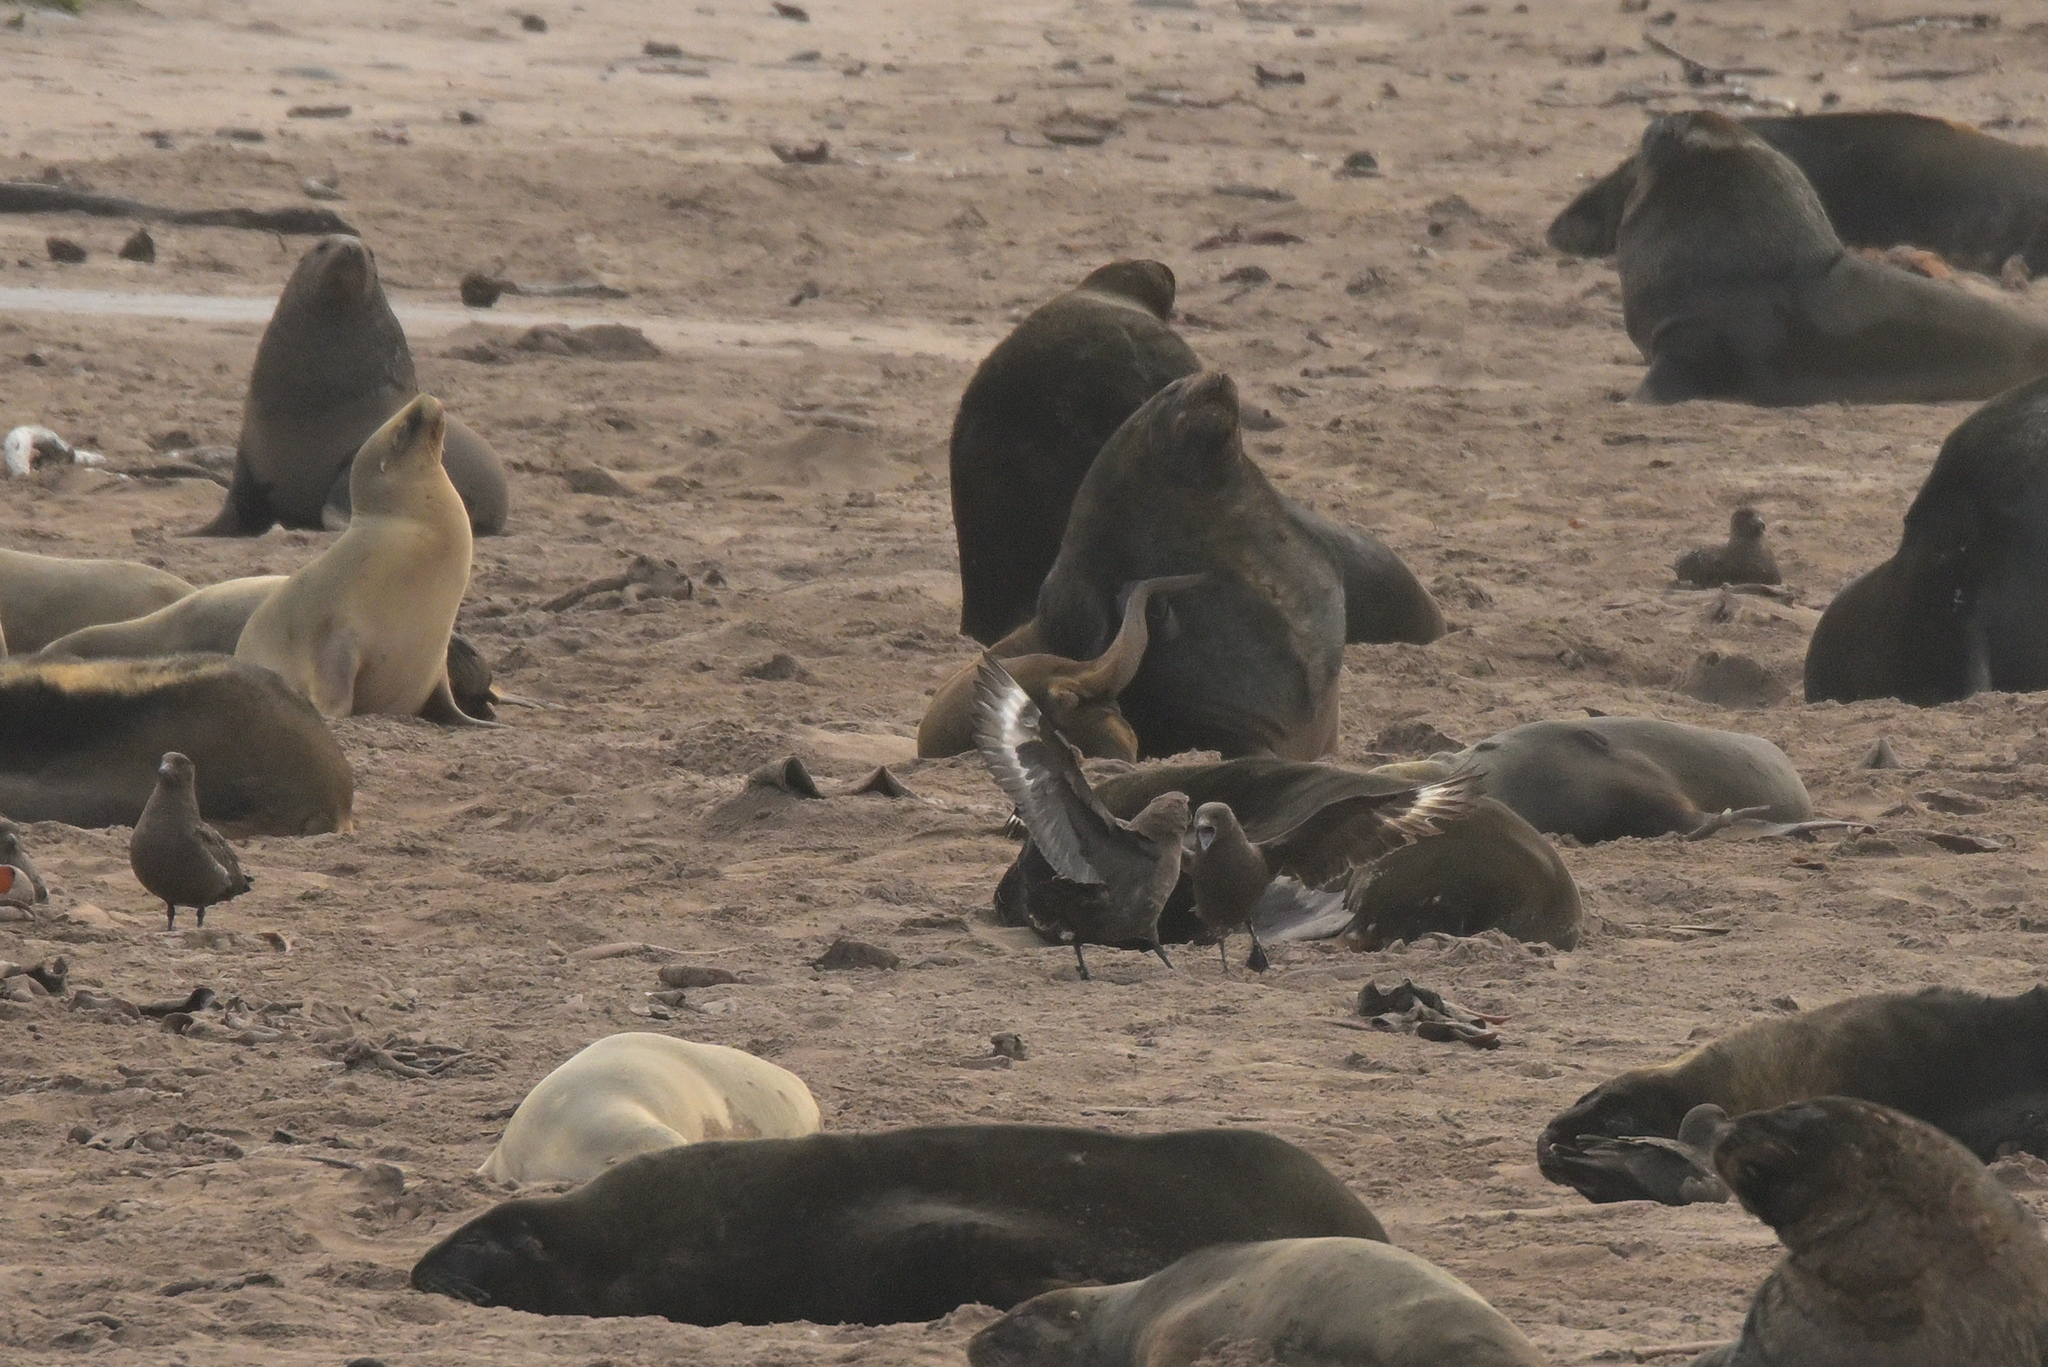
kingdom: Animalia
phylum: Chordata
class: Aves
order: Charadriiformes
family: Stercorariidae
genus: Stercorarius
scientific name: Stercorarius antarcticus
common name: Brown skua
